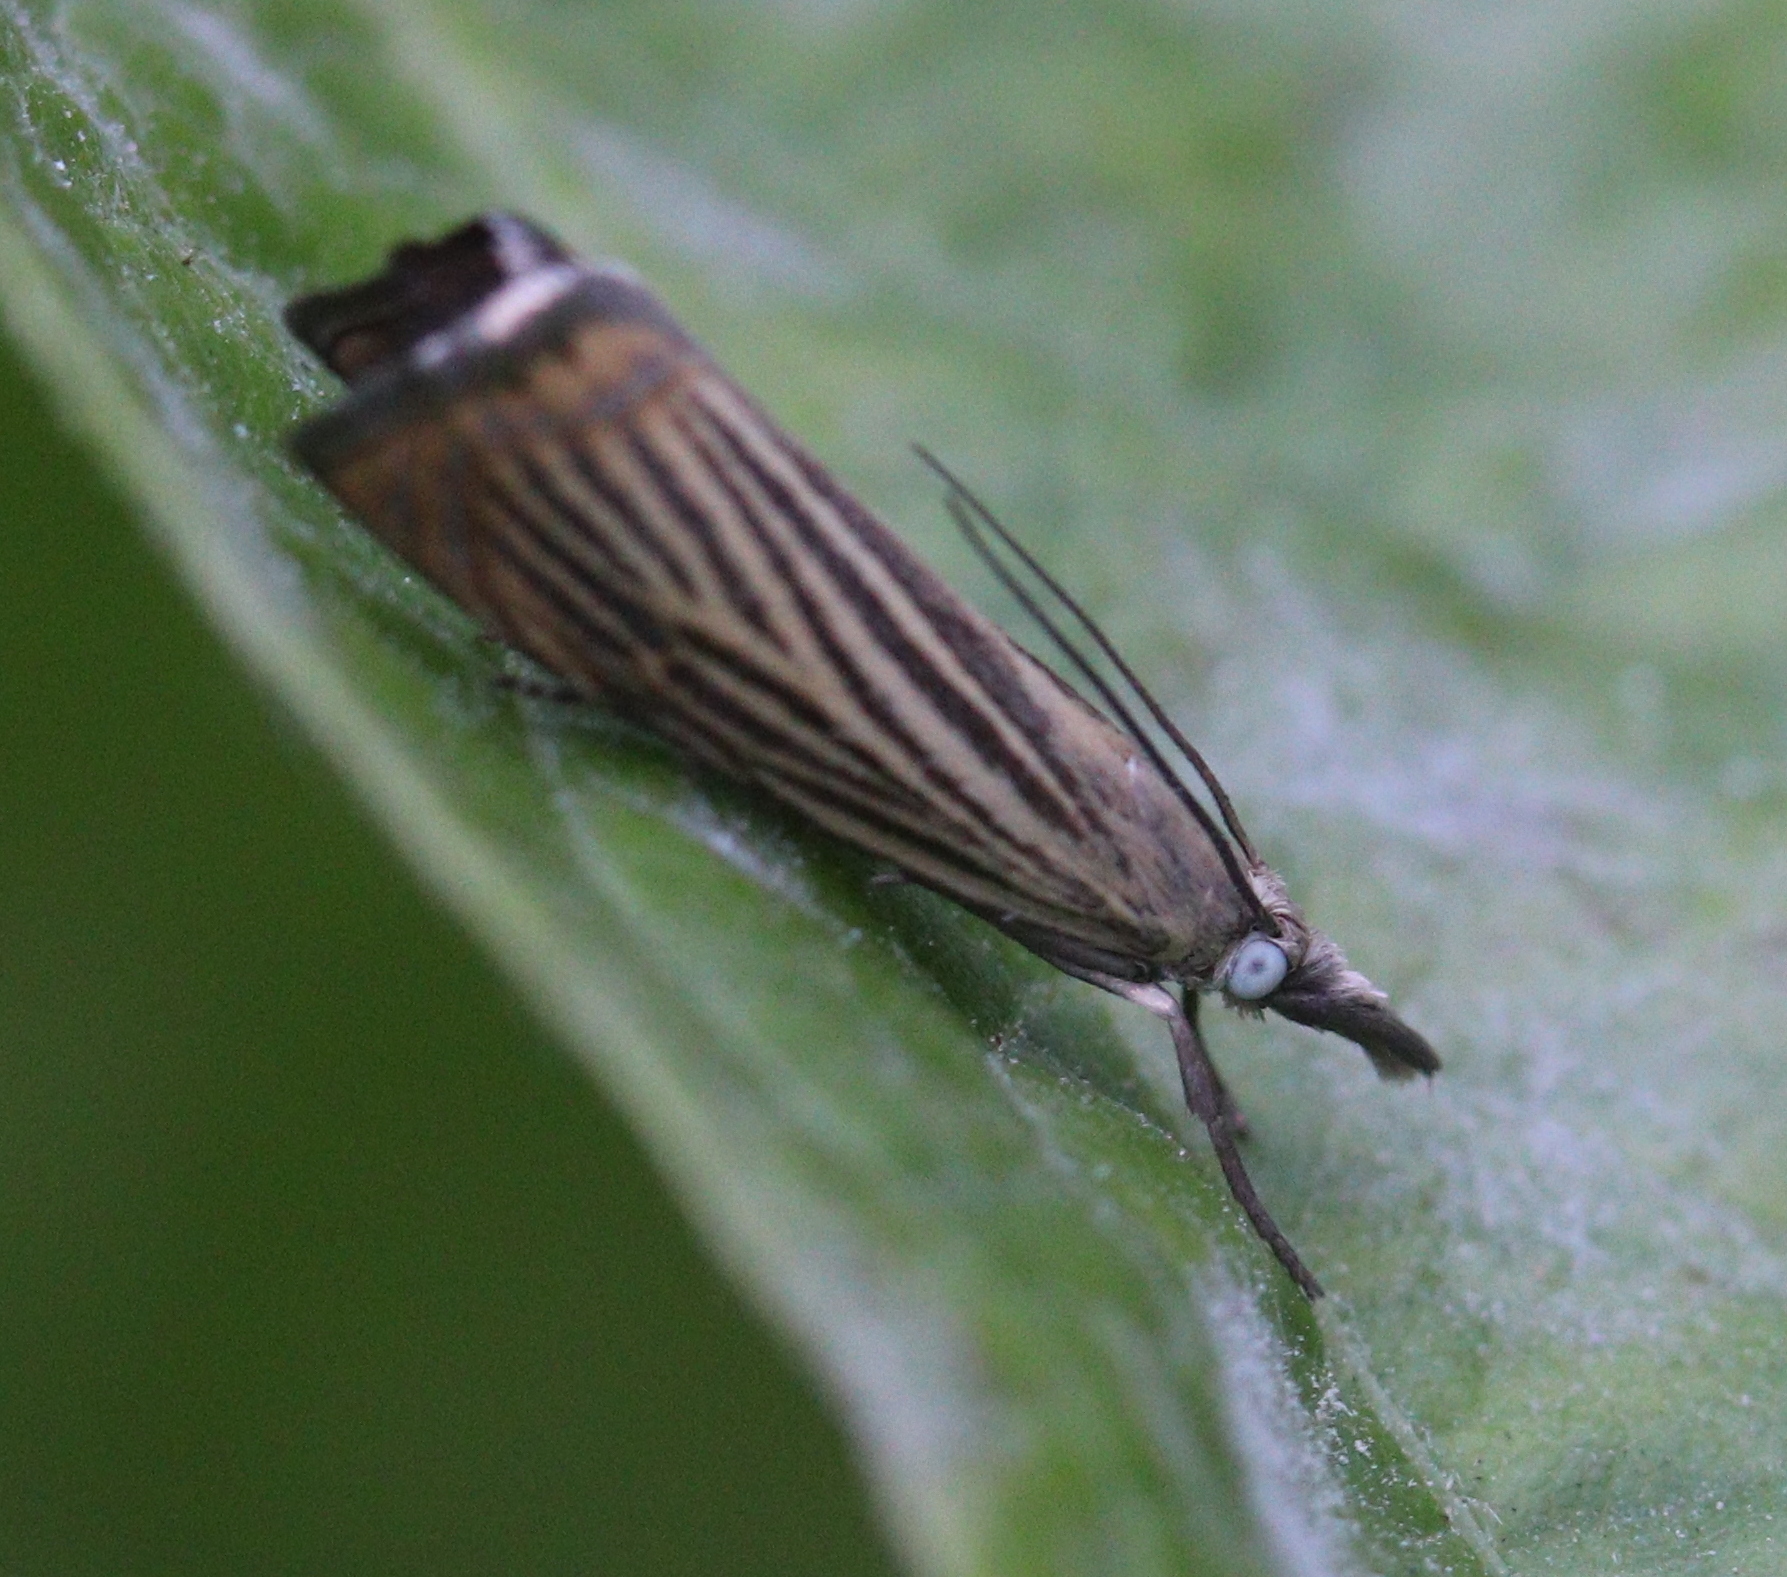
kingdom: Animalia
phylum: Arthropoda
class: Insecta
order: Lepidoptera
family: Crambidae
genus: Chrysoteuchia
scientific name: Chrysoteuchia culmella
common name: Garden grass-veneer
